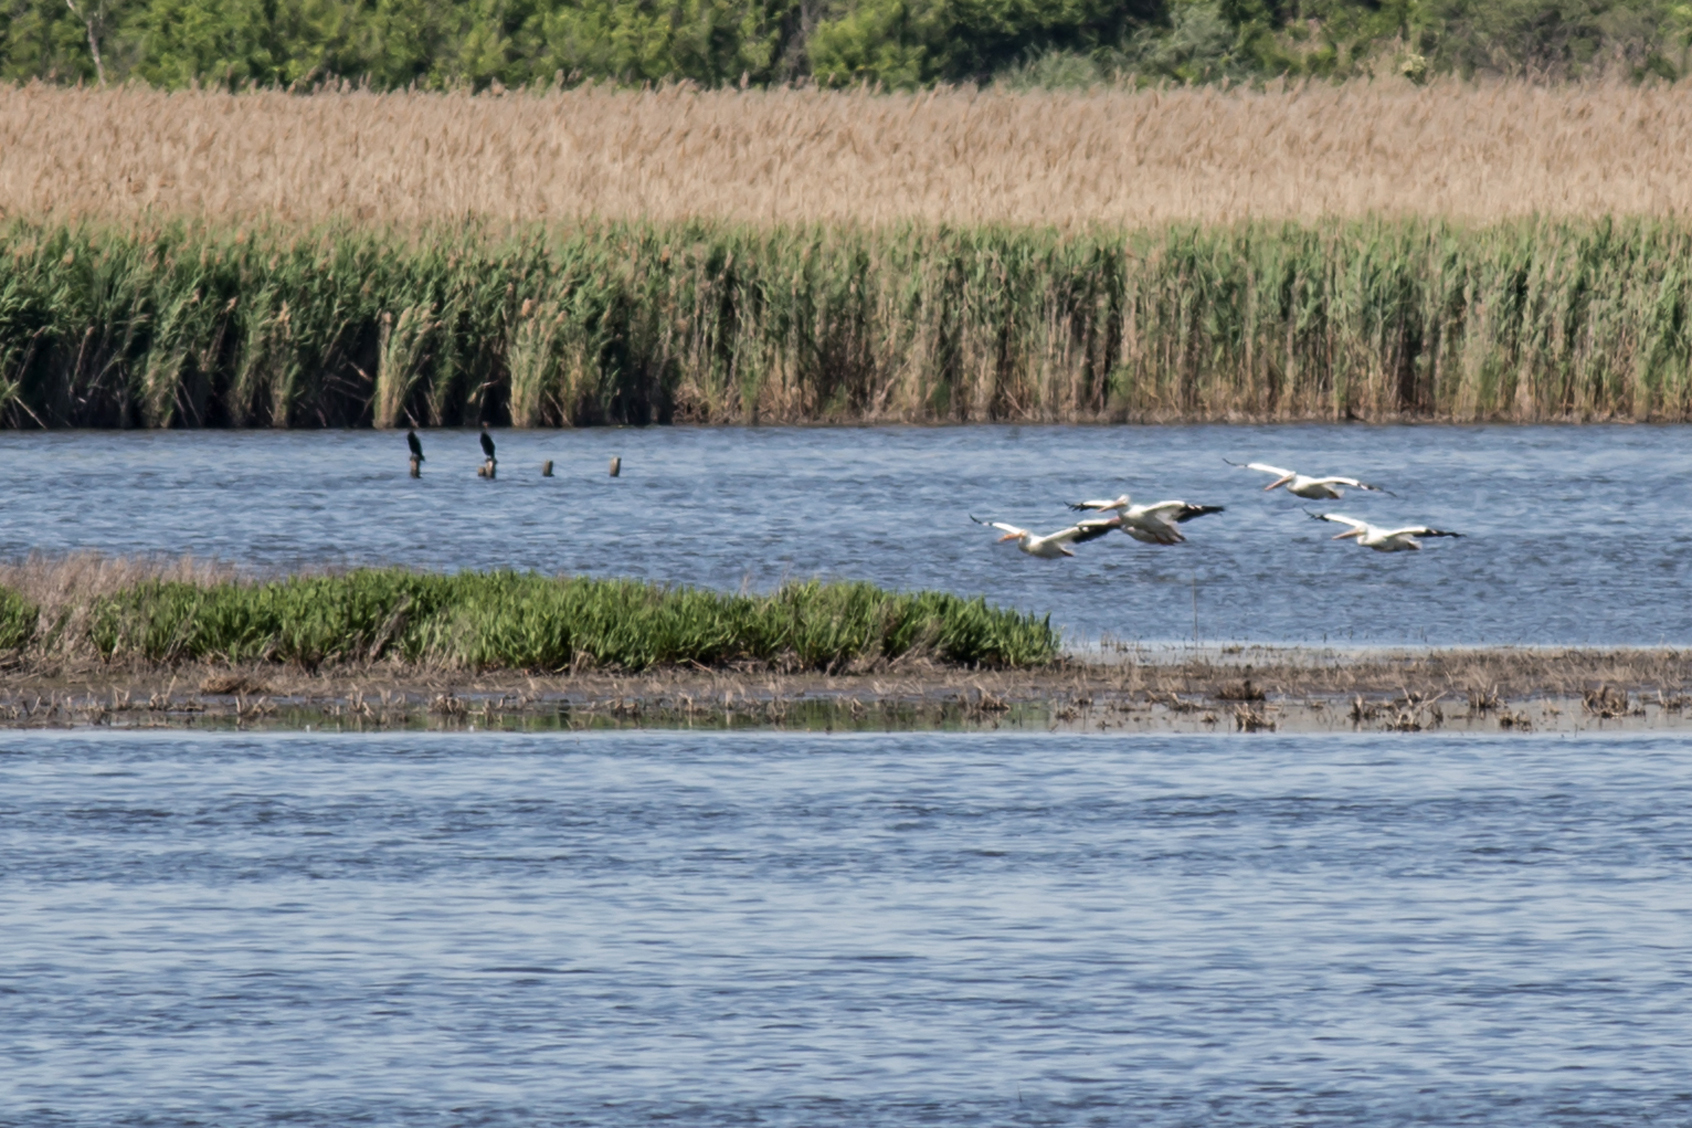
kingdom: Animalia
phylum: Chordata
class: Aves
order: Pelecaniformes
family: Pelecanidae
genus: Pelecanus
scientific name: Pelecanus erythrorhynchos
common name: American white pelican
